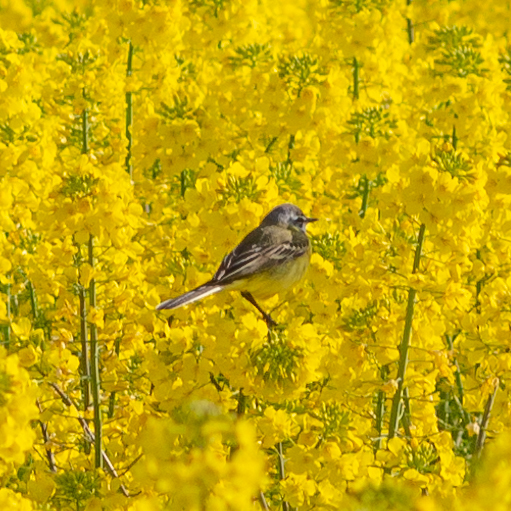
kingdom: Animalia
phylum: Chordata
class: Aves
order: Passeriformes
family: Motacillidae
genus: Motacilla
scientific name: Motacilla flava
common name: Western yellow wagtail
